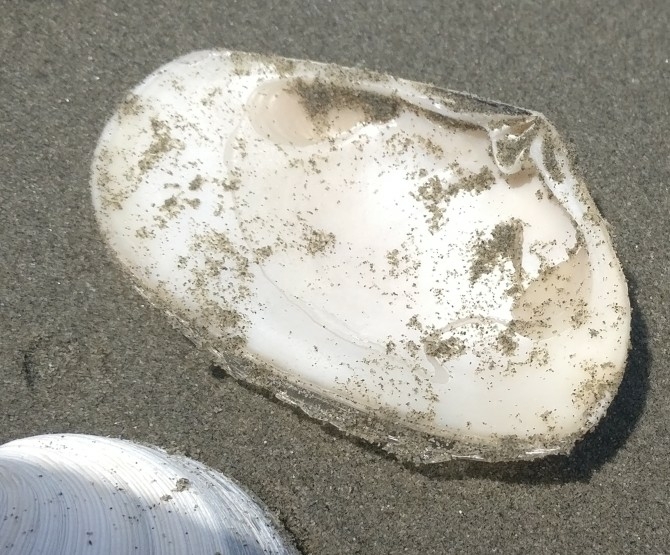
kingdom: Animalia
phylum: Mollusca
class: Bivalvia
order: Venerida
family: Mesodesmatidae
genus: Paphies
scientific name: Paphies donacina
